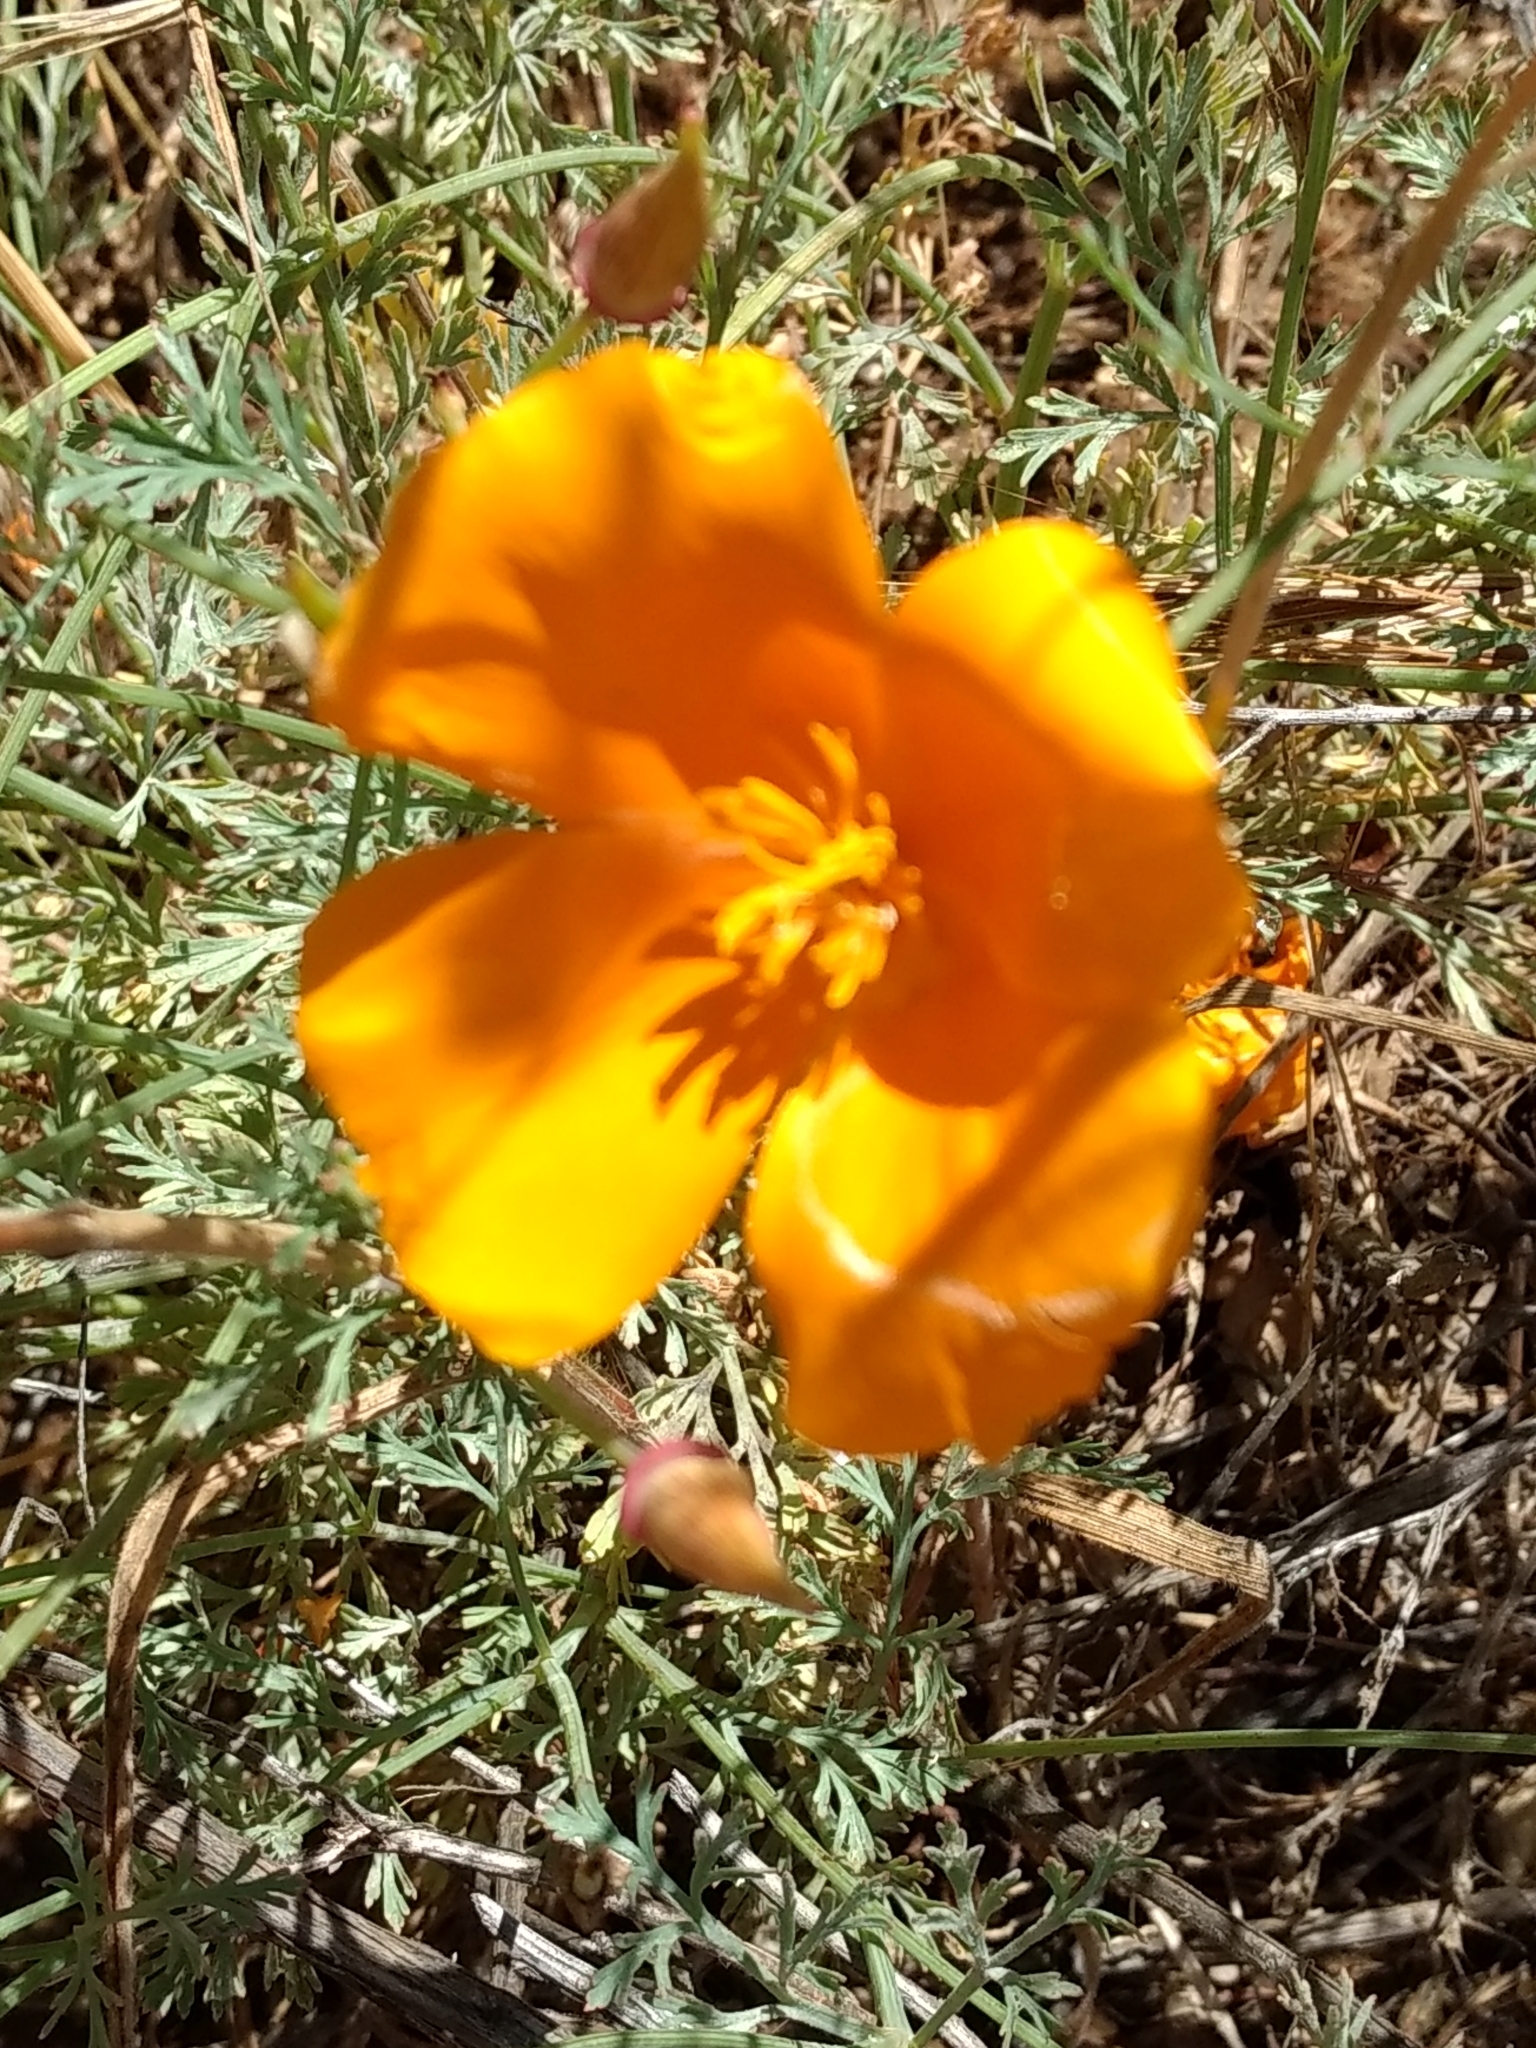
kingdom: Plantae
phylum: Tracheophyta
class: Magnoliopsida
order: Ranunculales
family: Papaveraceae
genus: Eschscholzia
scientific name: Eschscholzia californica
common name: California poppy
